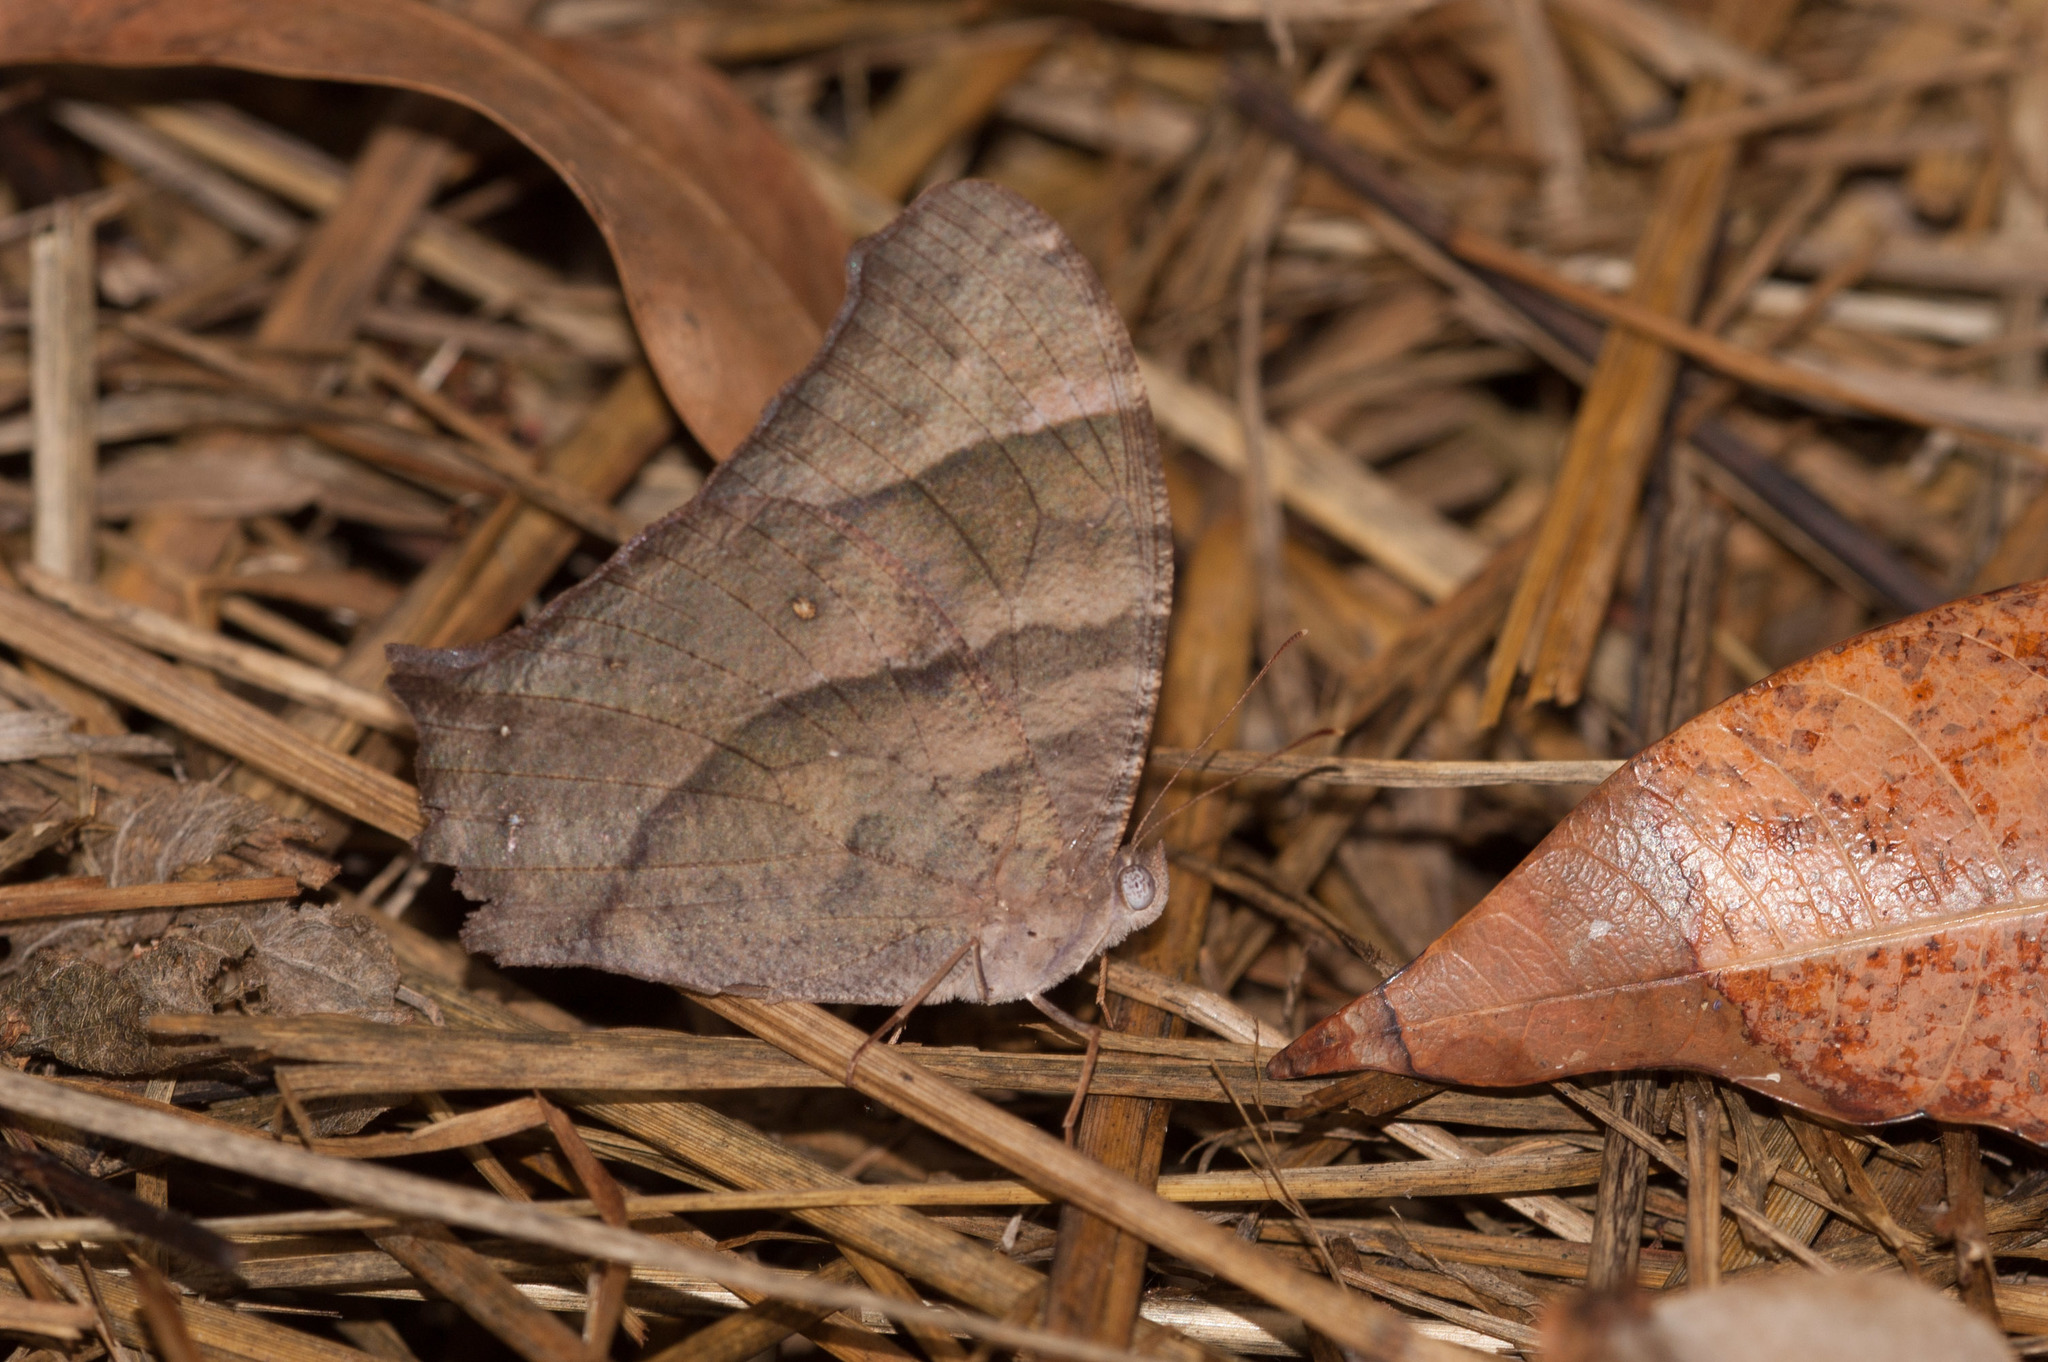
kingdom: Animalia
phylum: Arthropoda
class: Insecta
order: Lepidoptera
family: Nymphalidae
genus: Melanitis
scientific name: Melanitis leda
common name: Twilight brown
